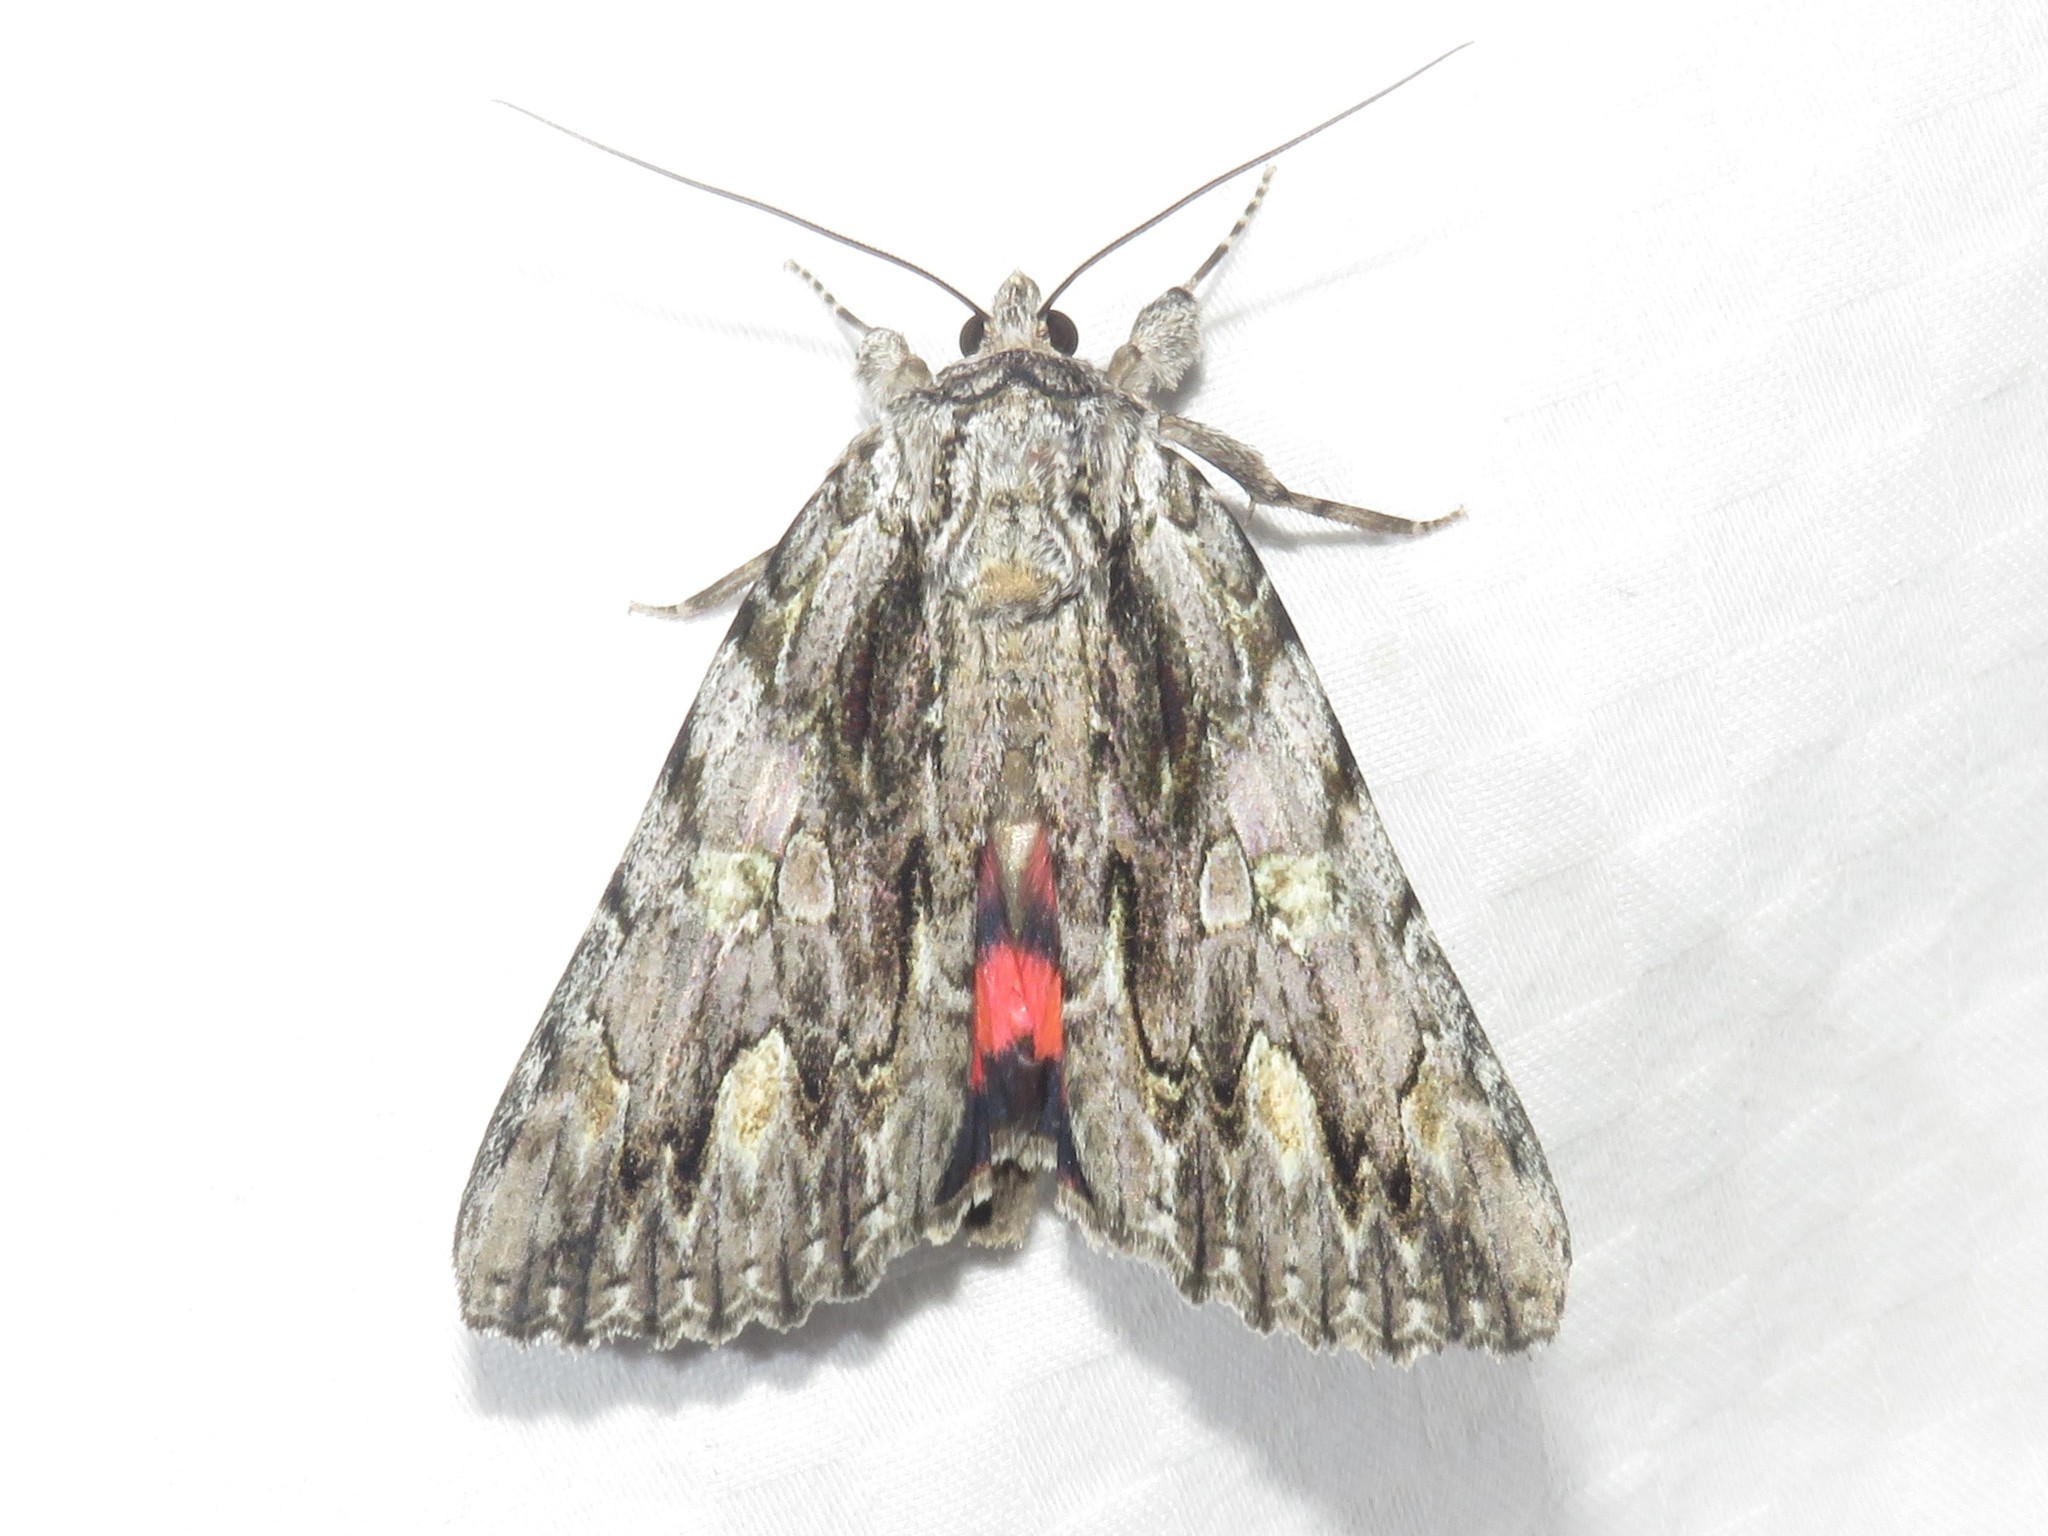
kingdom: Animalia
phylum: Arthropoda
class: Insecta
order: Lepidoptera
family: Erebidae
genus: Catocala
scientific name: Catocala coccinata
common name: Scarlet underwing
